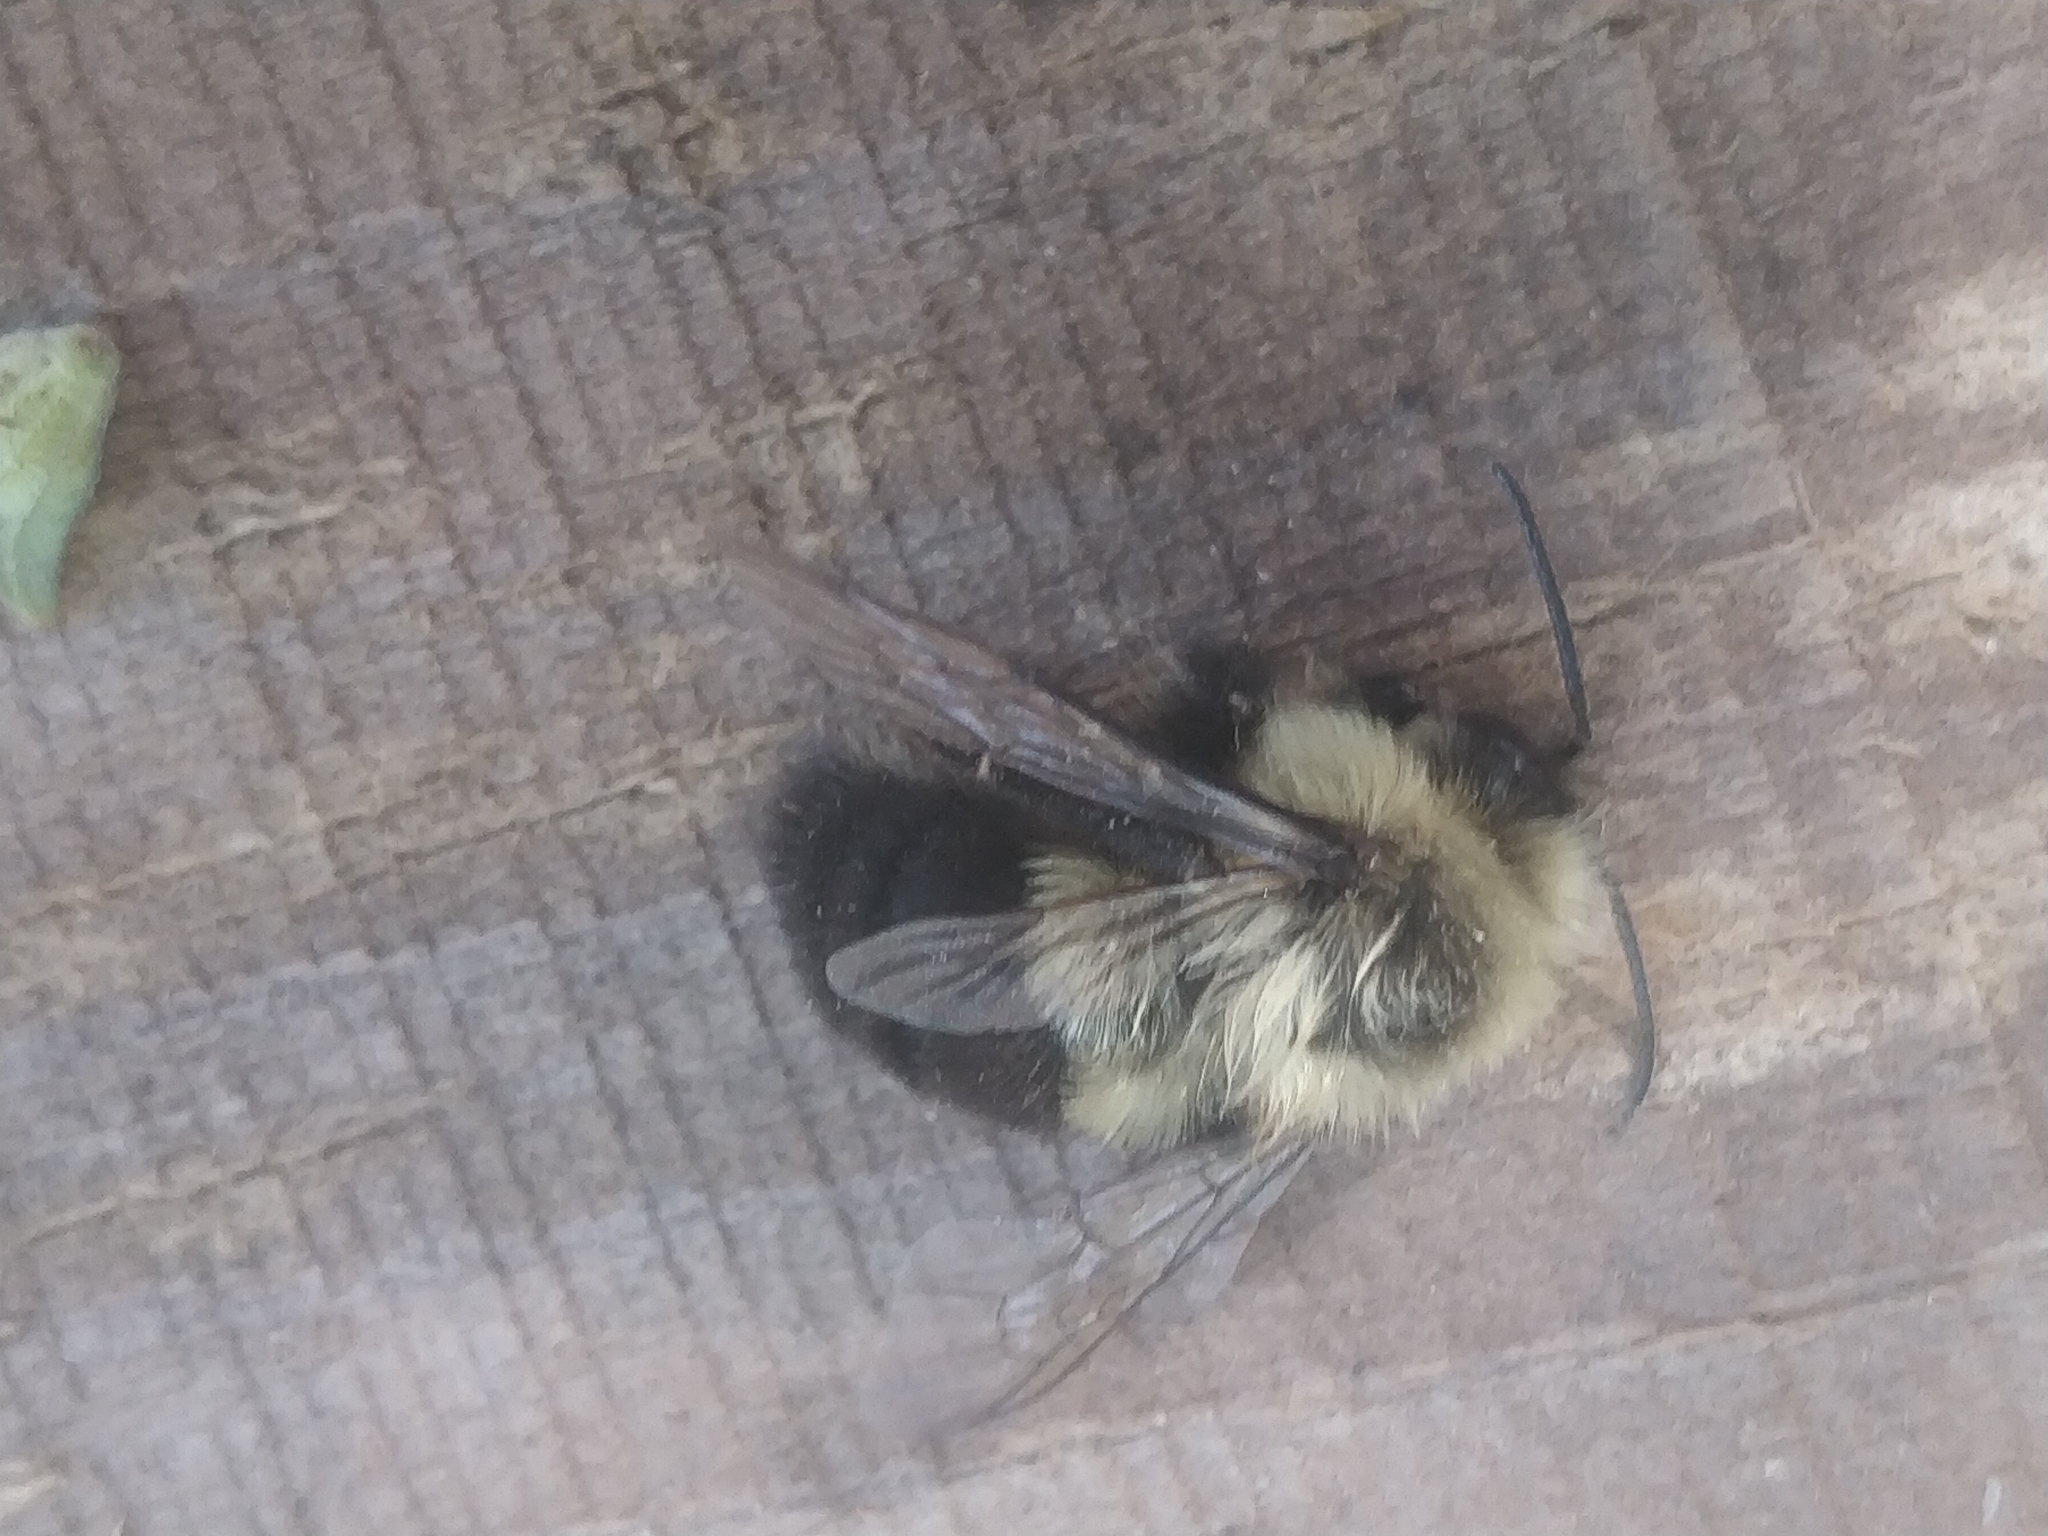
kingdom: Animalia
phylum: Arthropoda
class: Insecta
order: Hymenoptera
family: Apidae
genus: Bombus
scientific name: Bombus impatiens
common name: Common eastern bumble bee
